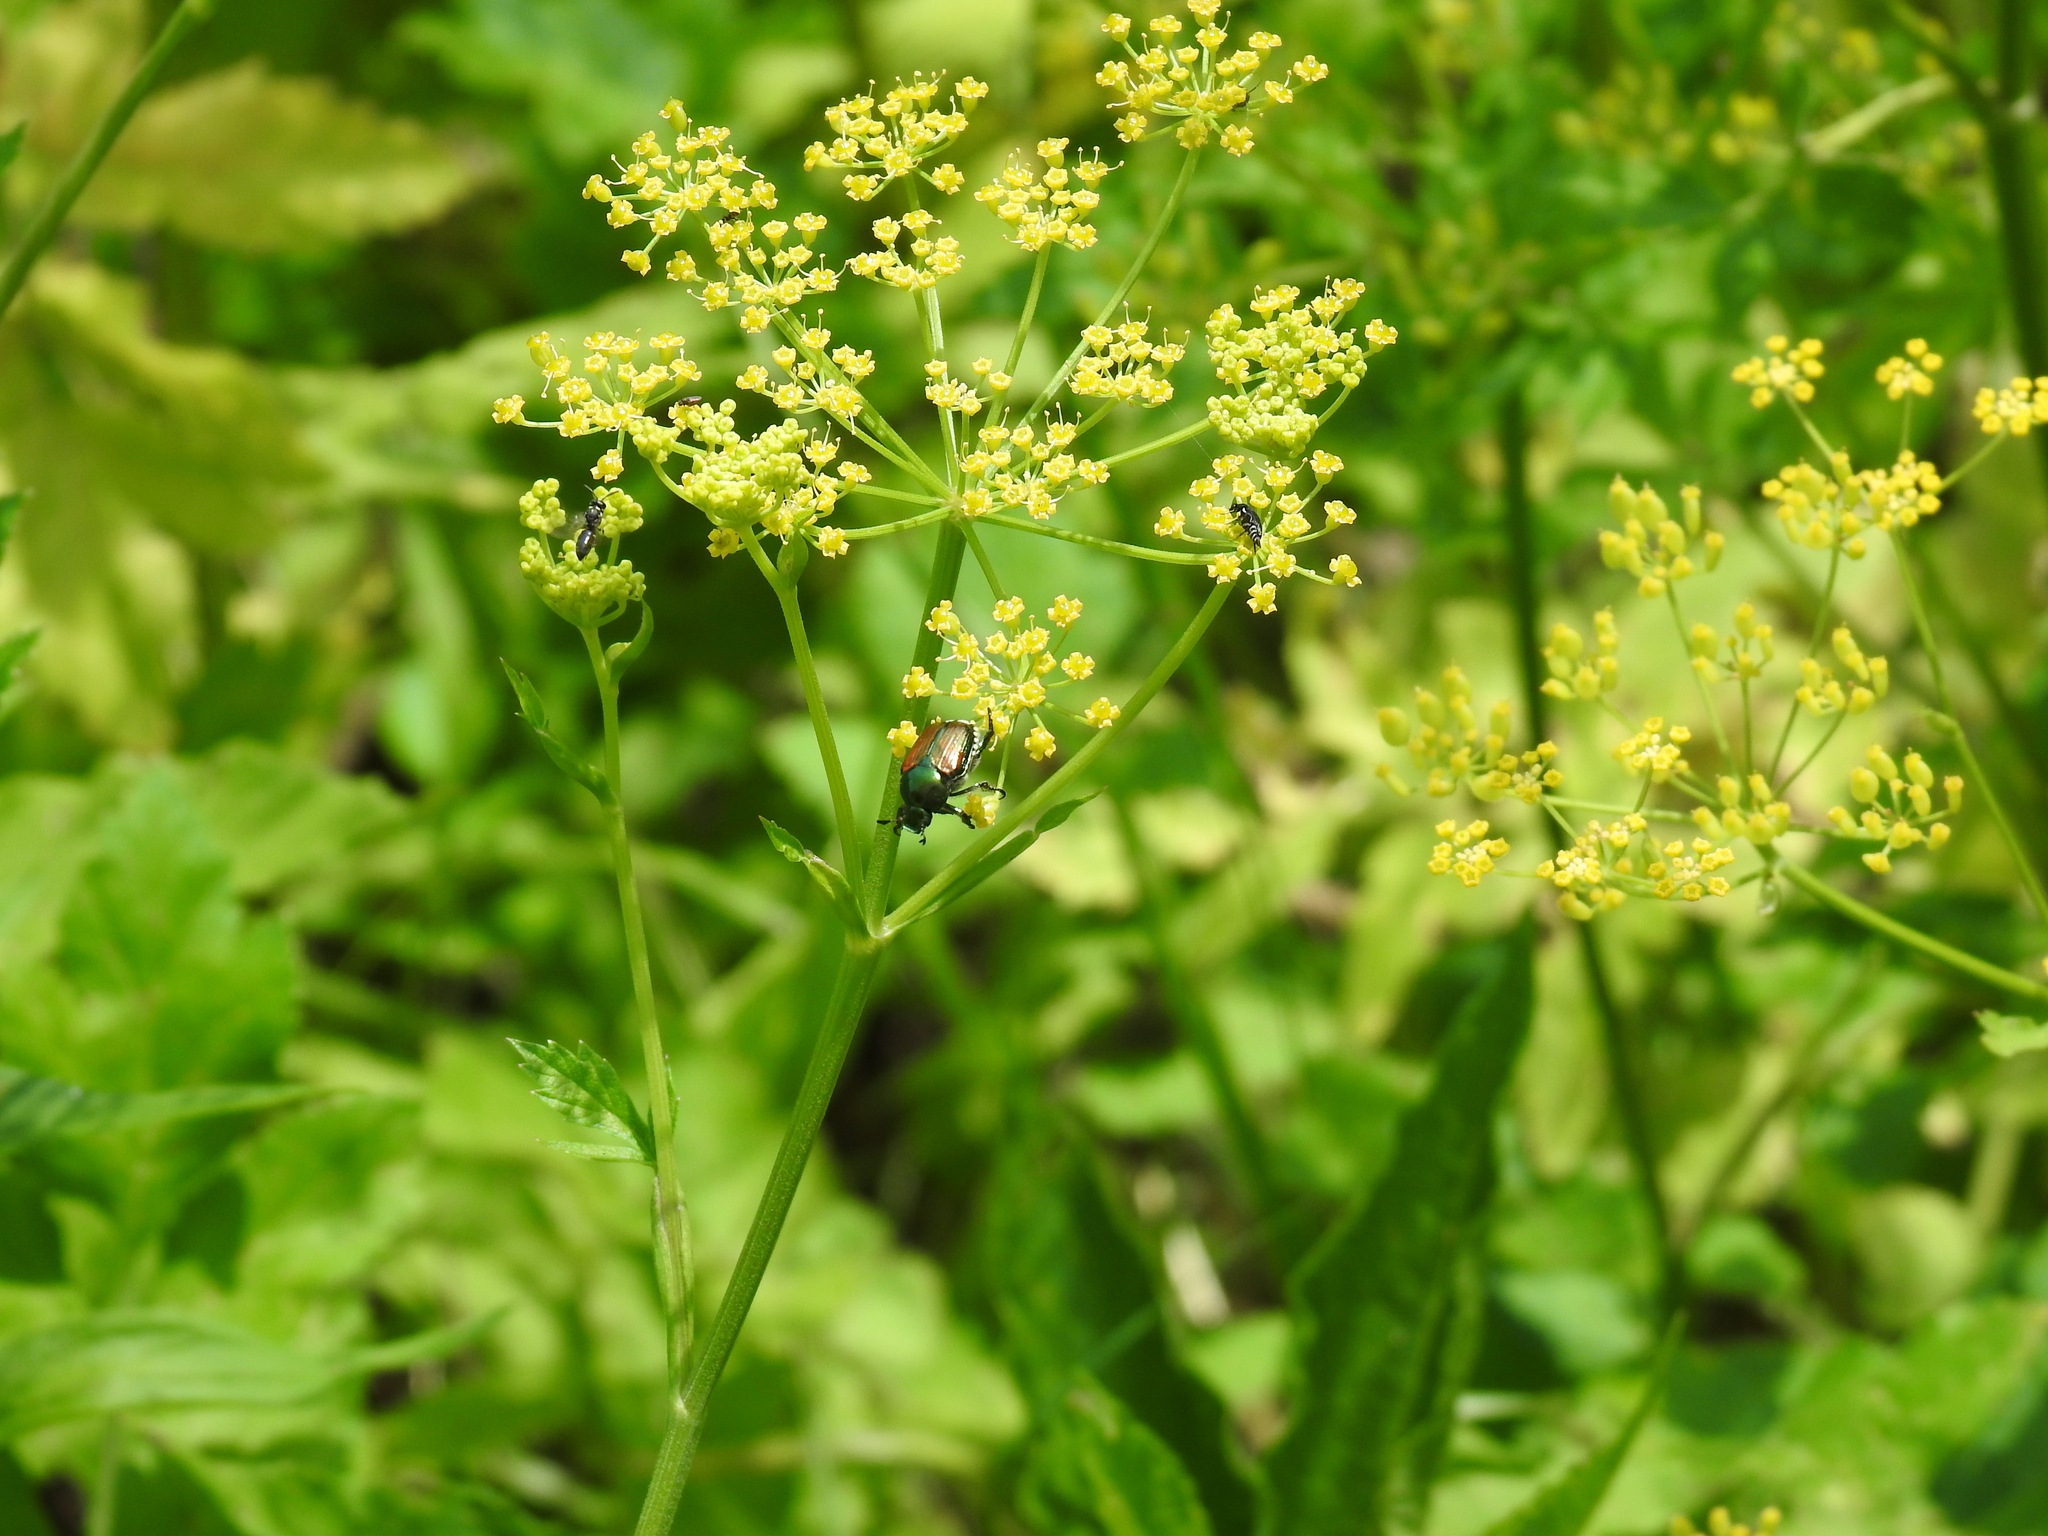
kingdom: Animalia
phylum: Arthropoda
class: Insecta
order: Coleoptera
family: Scarabaeidae
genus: Popillia
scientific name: Popillia japonica
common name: Japanese beetle
